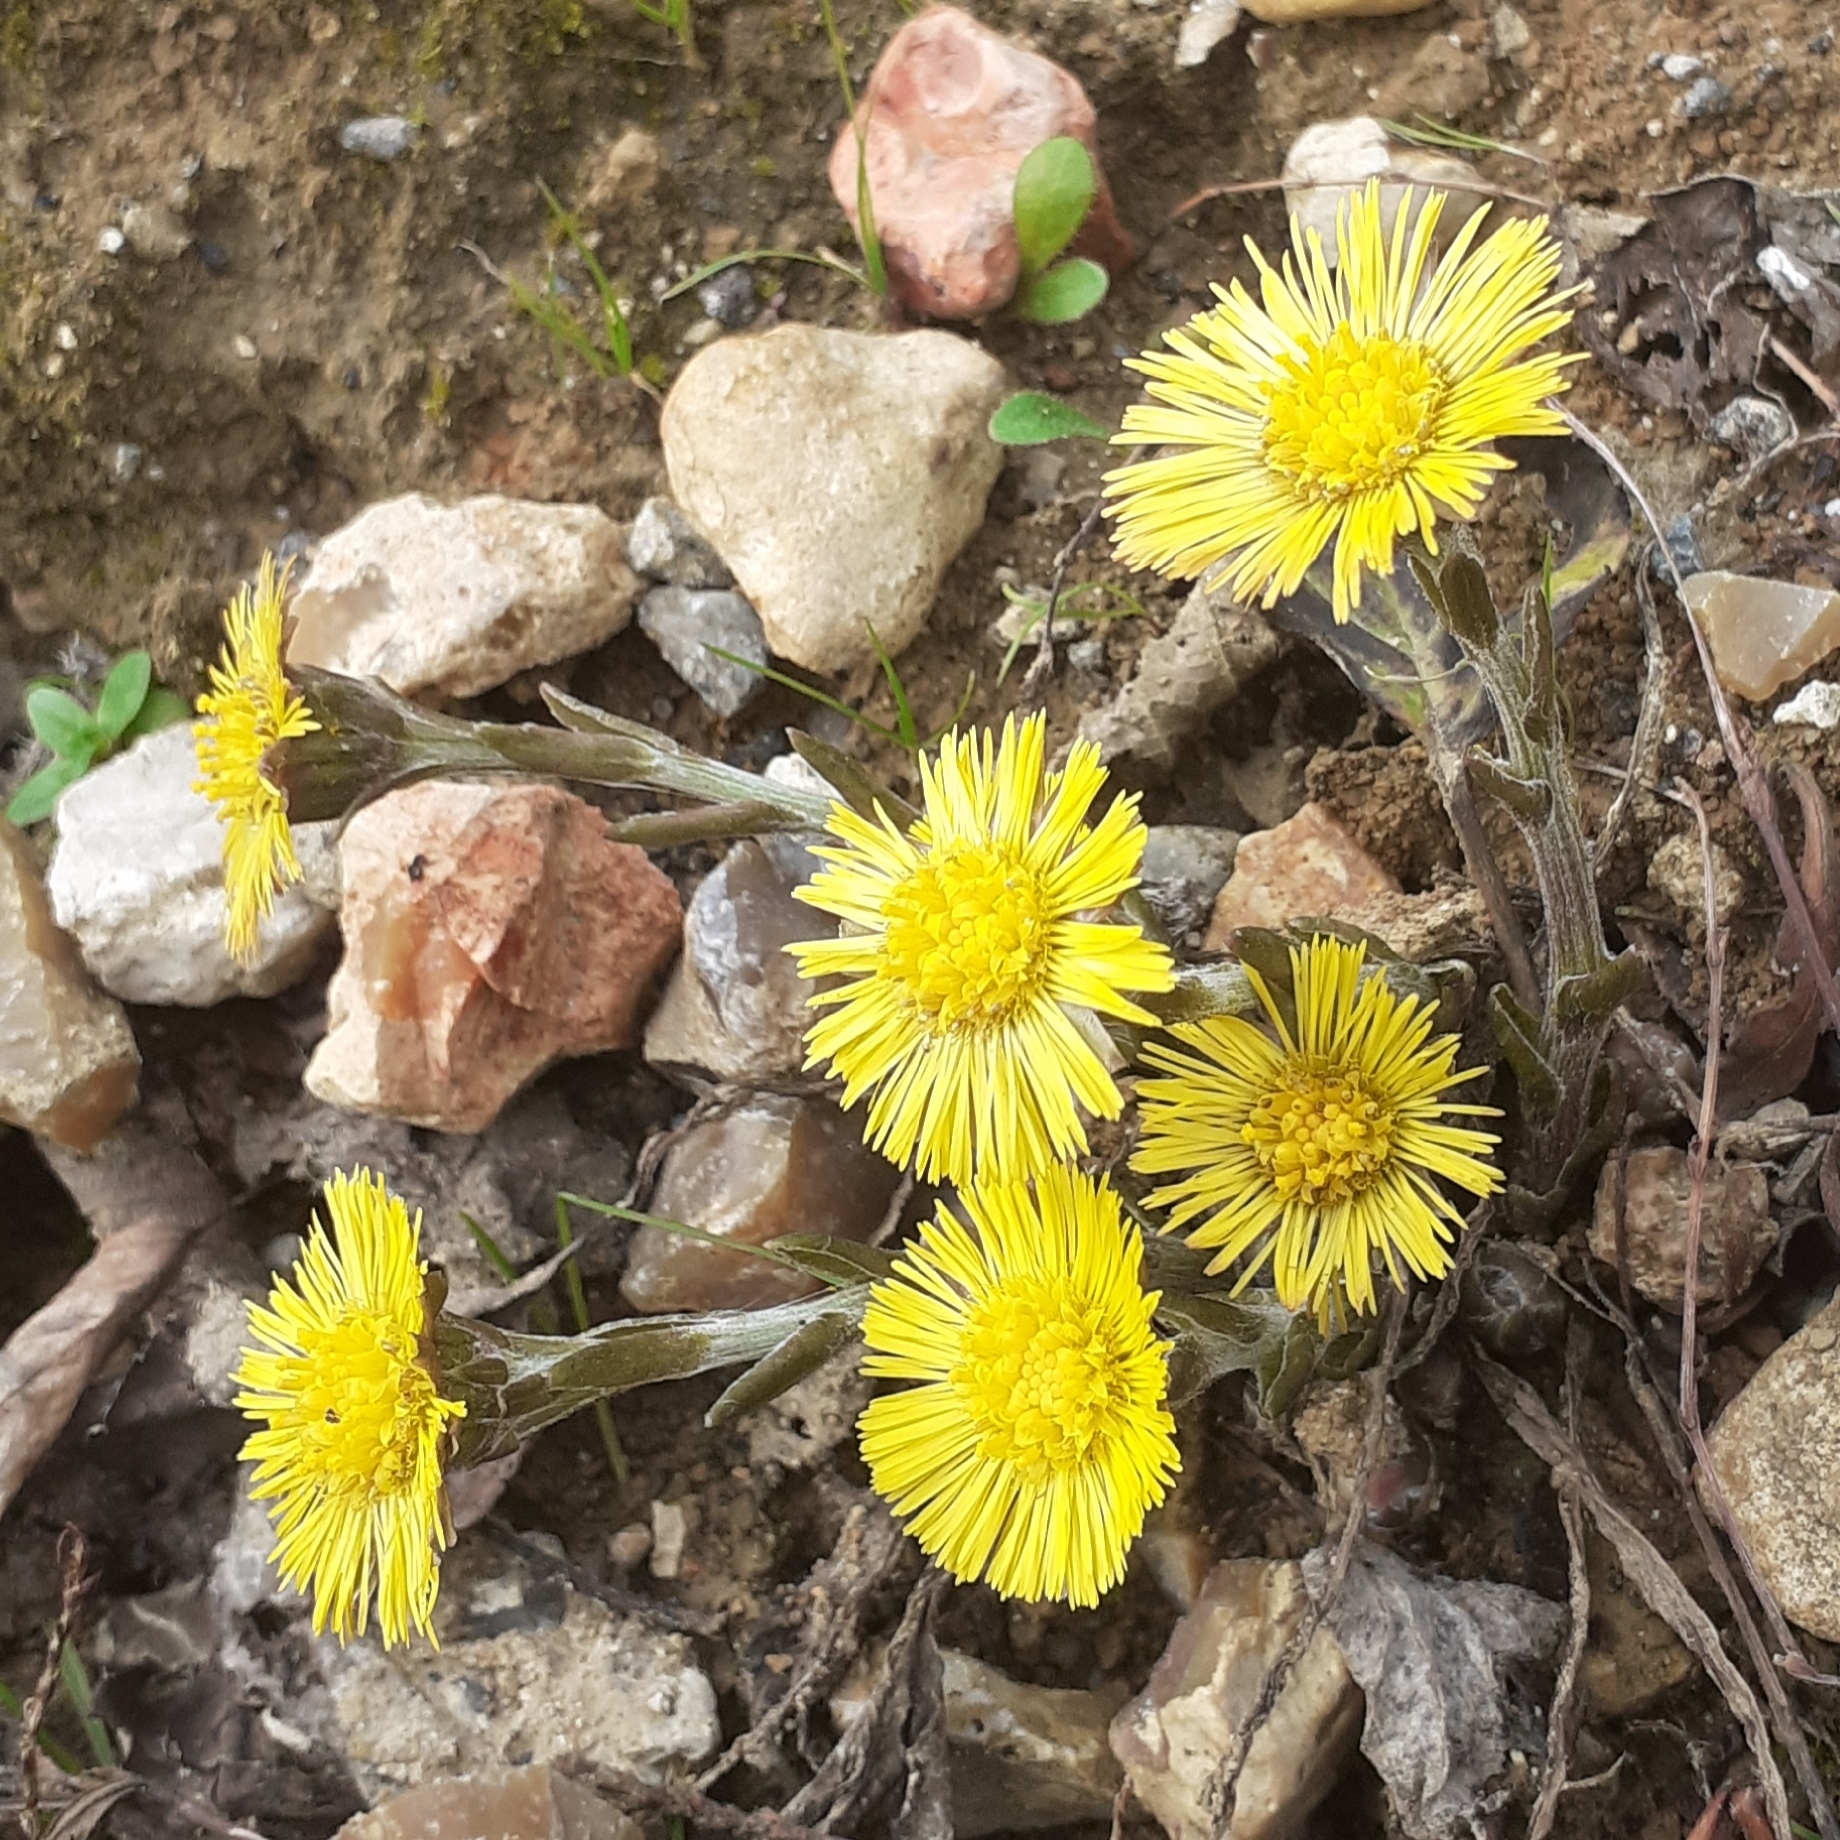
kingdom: Plantae
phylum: Tracheophyta
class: Magnoliopsida
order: Asterales
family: Asteraceae
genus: Tussilago
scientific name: Tussilago farfara
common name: Coltsfoot
